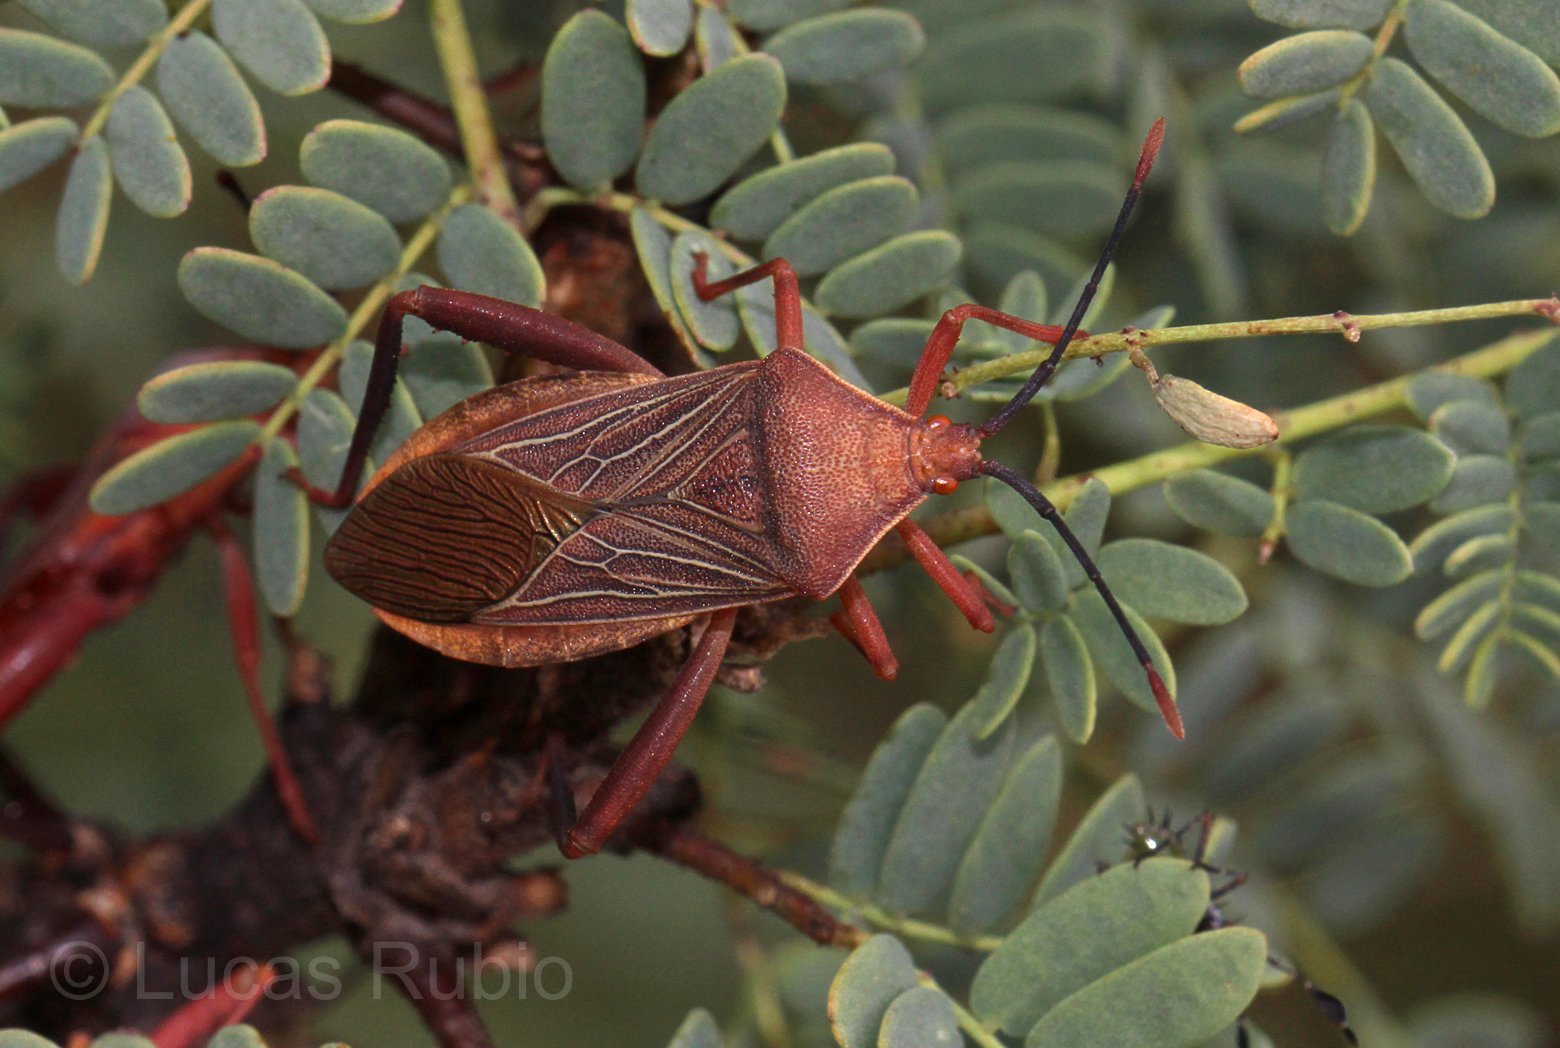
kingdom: Animalia
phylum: Arthropoda
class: Insecta
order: Hemiptera
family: Coreidae
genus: Athaumastus
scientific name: Athaumastus haematicus
